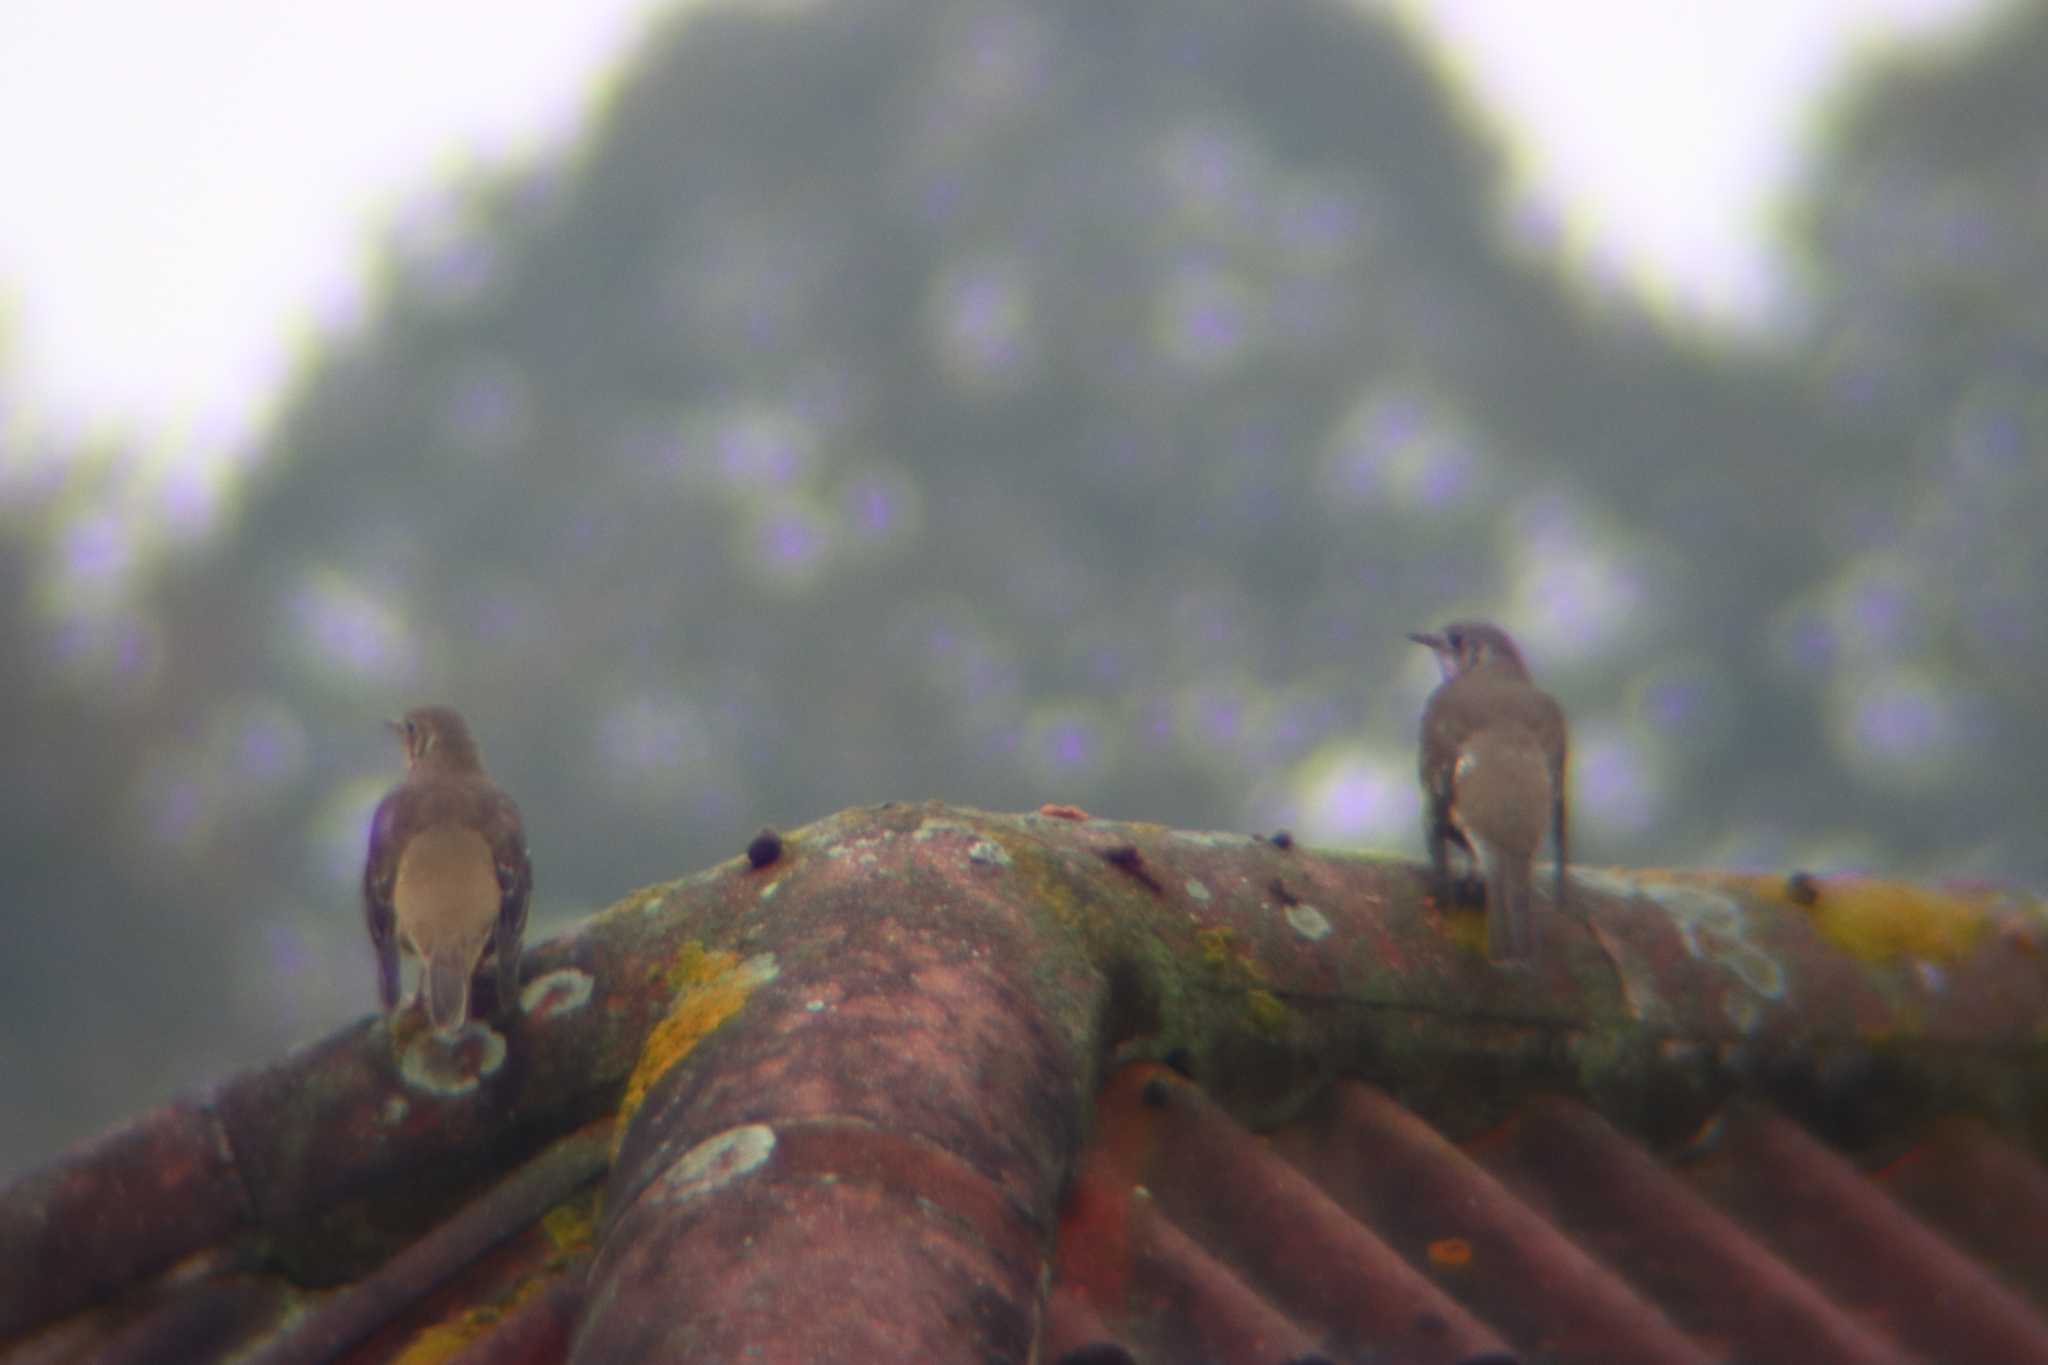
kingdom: Animalia
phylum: Chordata
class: Aves
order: Passeriformes
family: Turdidae
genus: Turdus
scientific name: Turdus viscivorus
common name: Mistle thrush
